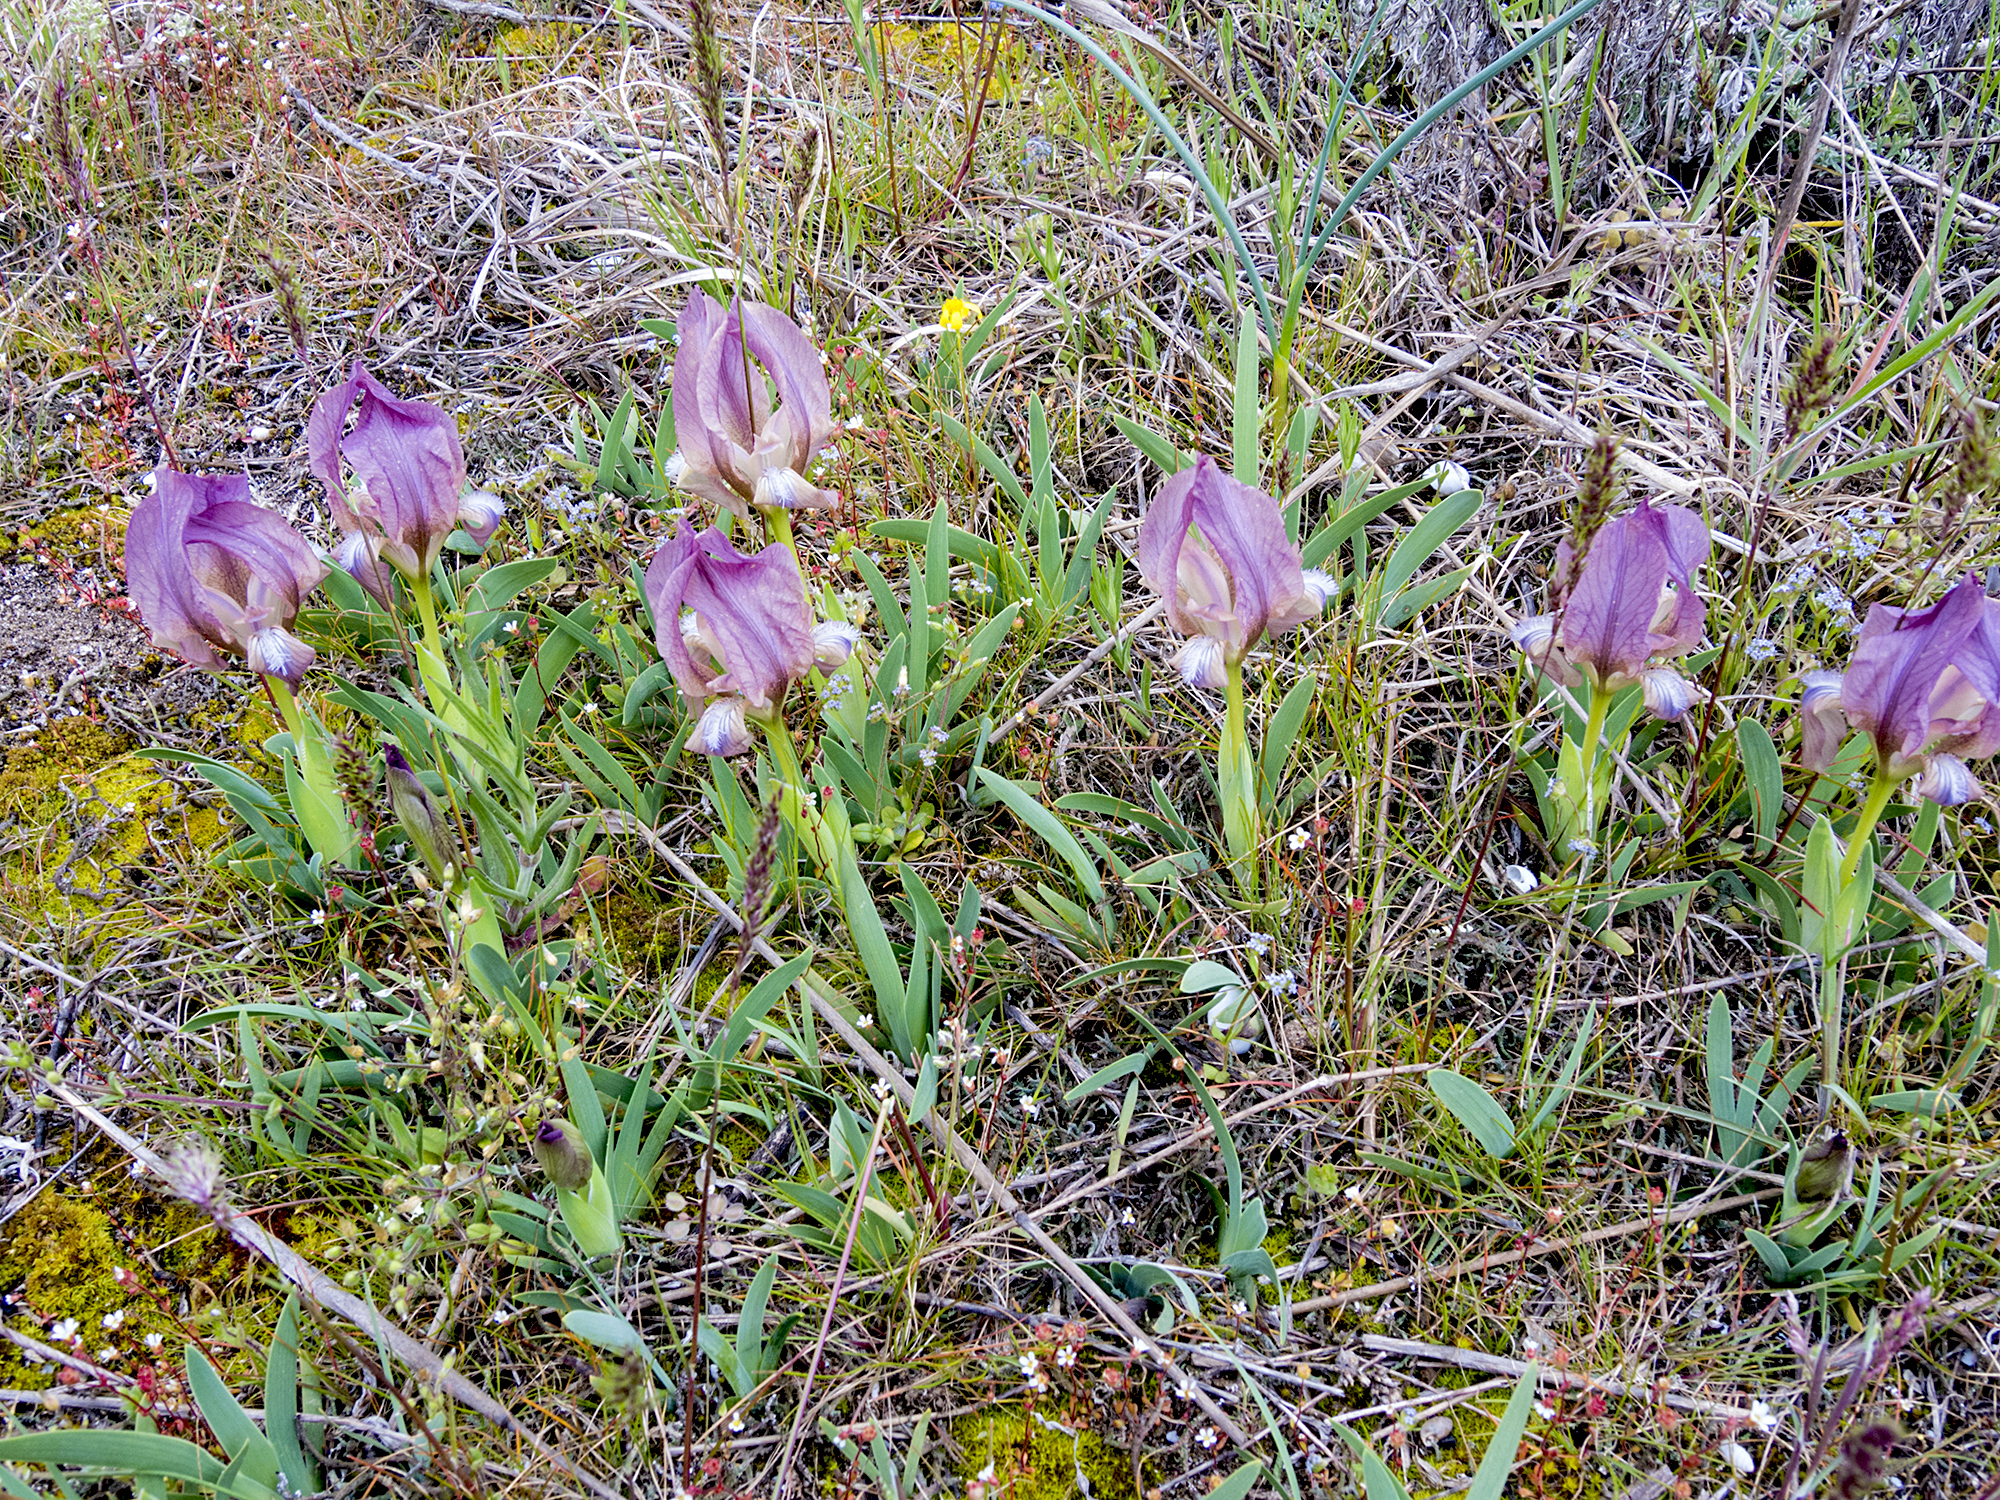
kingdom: Plantae
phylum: Tracheophyta
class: Liliopsida
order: Asparagales
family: Iridaceae
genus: Iris
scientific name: Iris suaveolens
